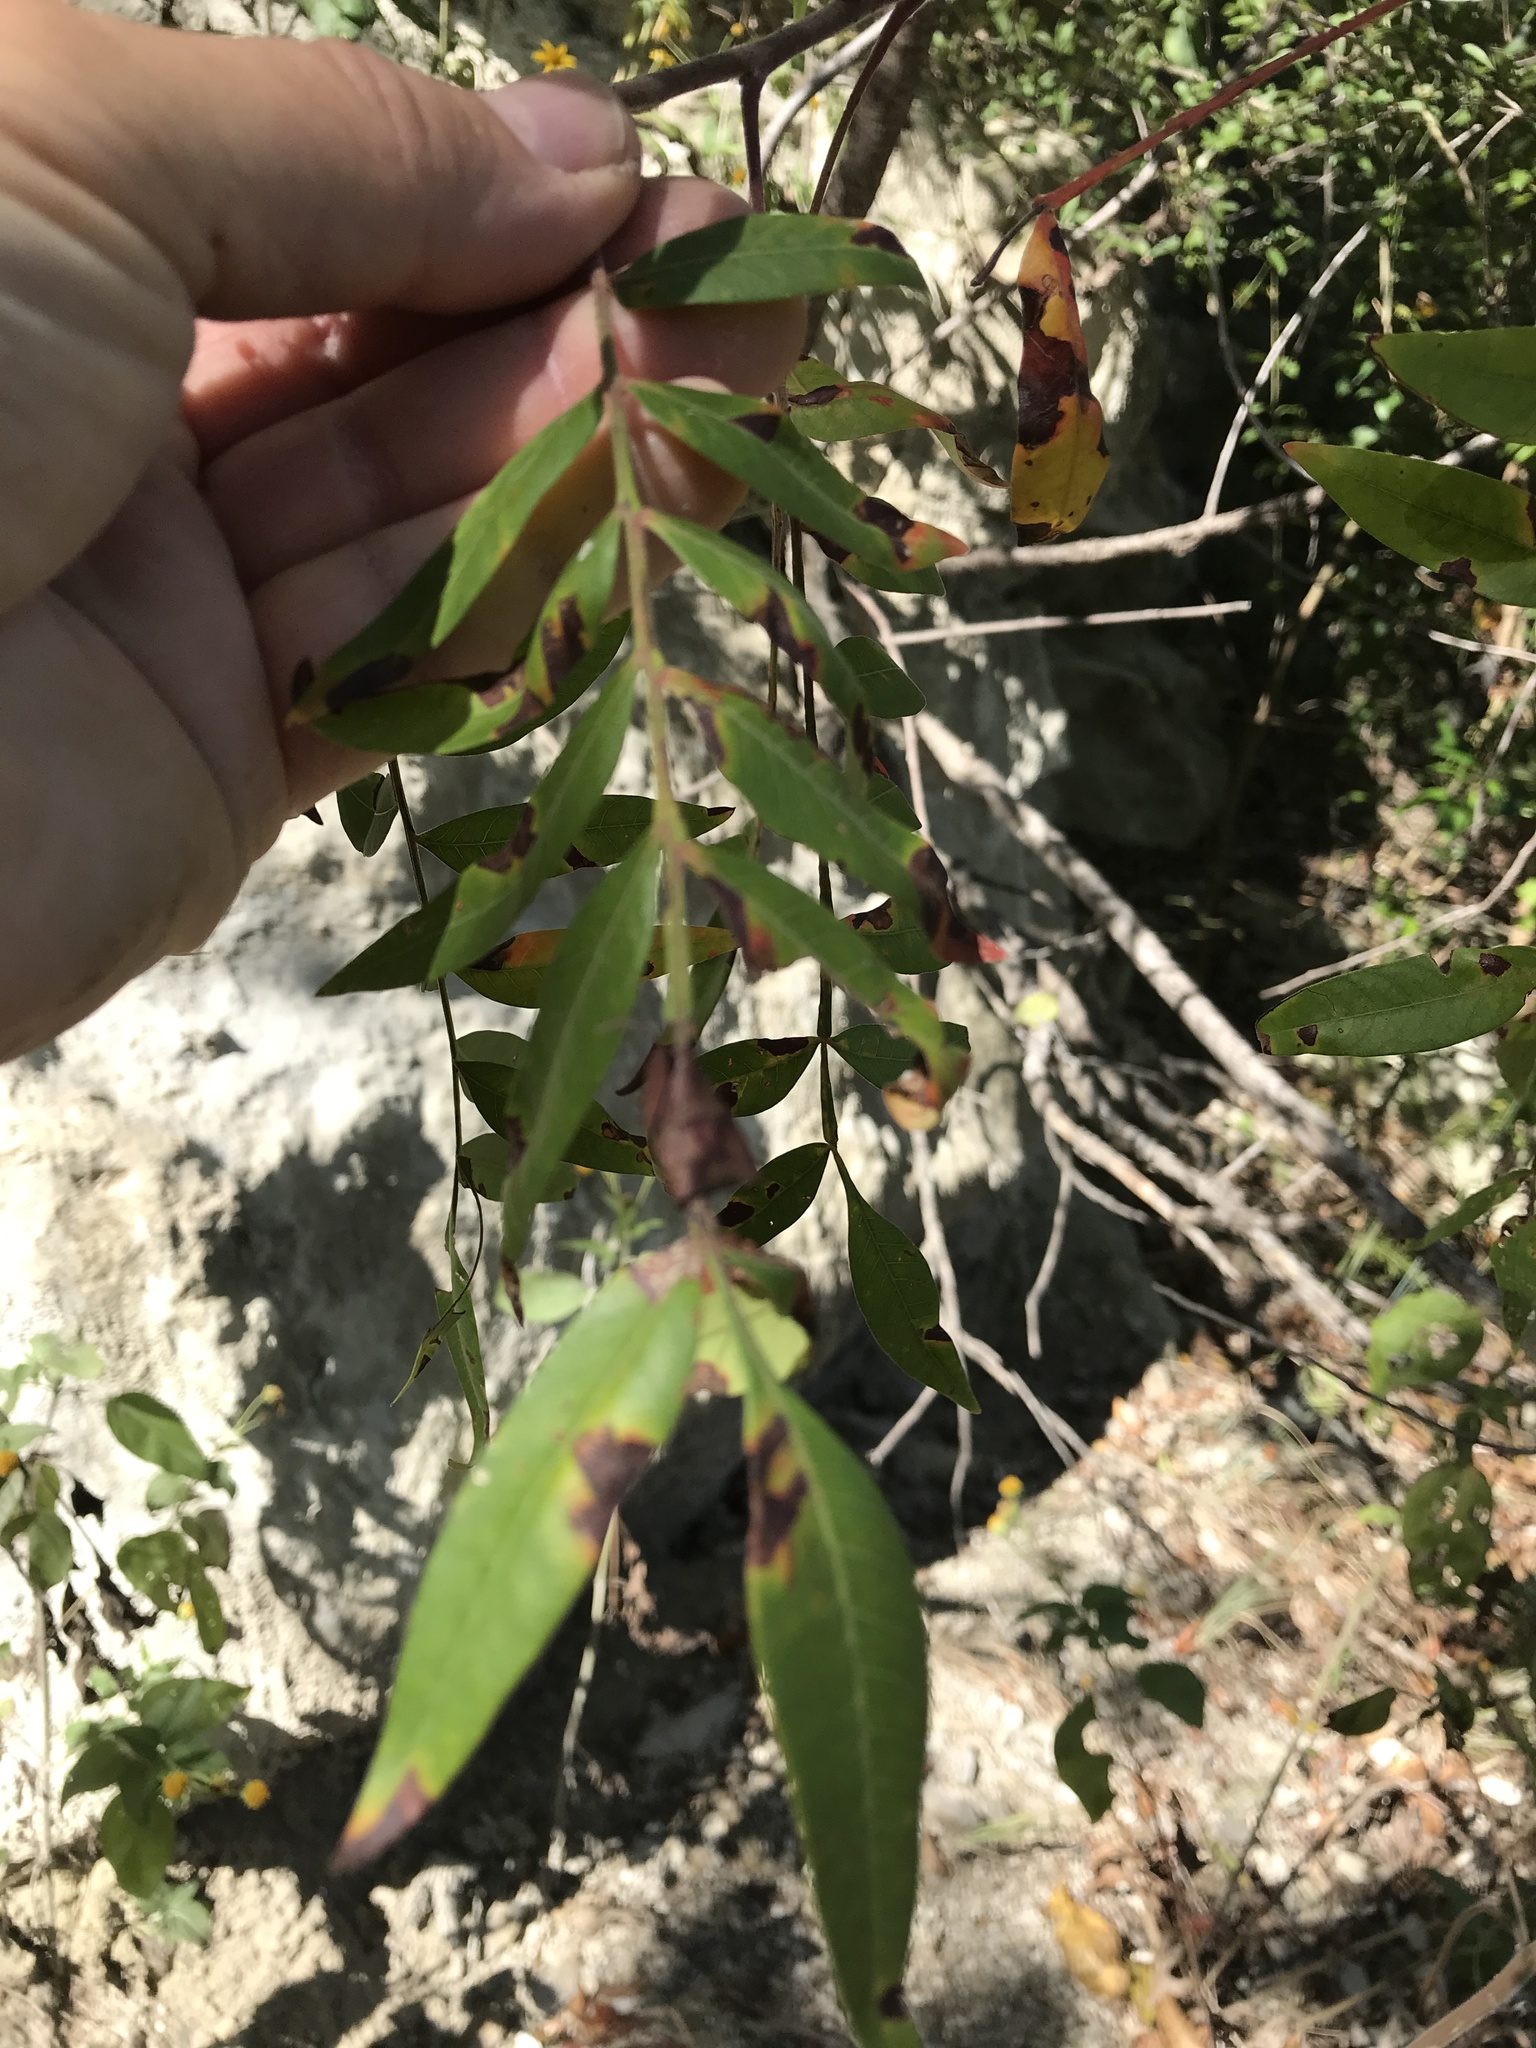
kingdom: Plantae
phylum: Tracheophyta
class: Magnoliopsida
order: Sapindales
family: Anacardiaceae
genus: Rhus
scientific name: Rhus lanceolata
